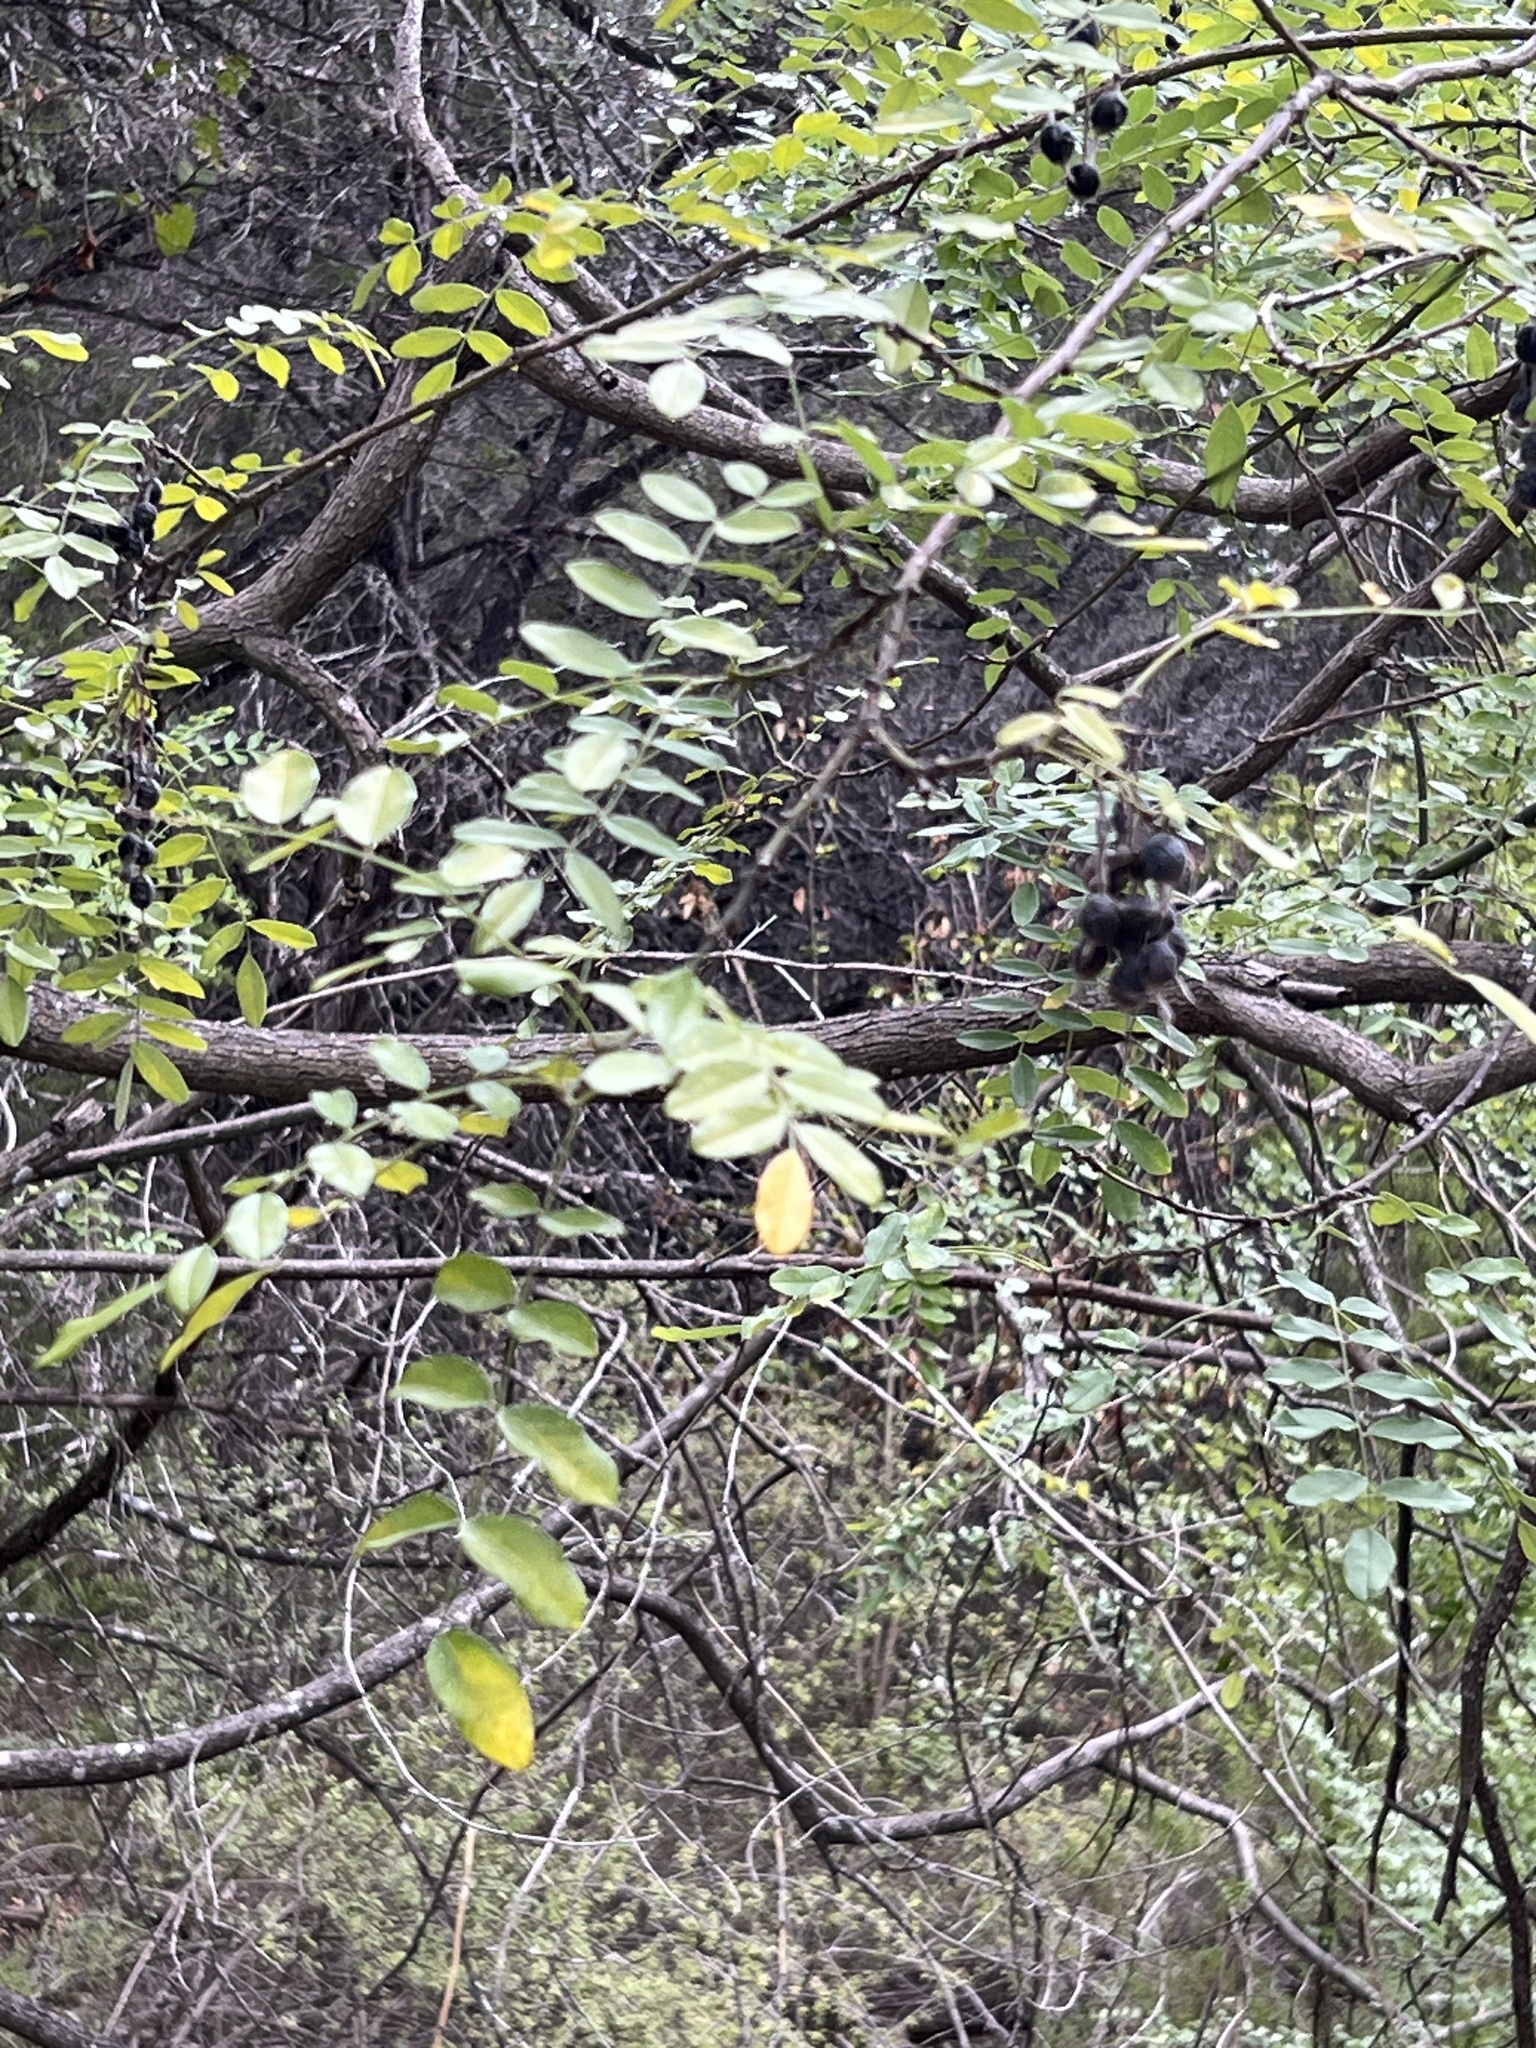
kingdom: Plantae
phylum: Tracheophyta
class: Magnoliopsida
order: Fabales
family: Fabaceae
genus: Styphnolobium
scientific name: Styphnolobium affine
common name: Texas sophora
